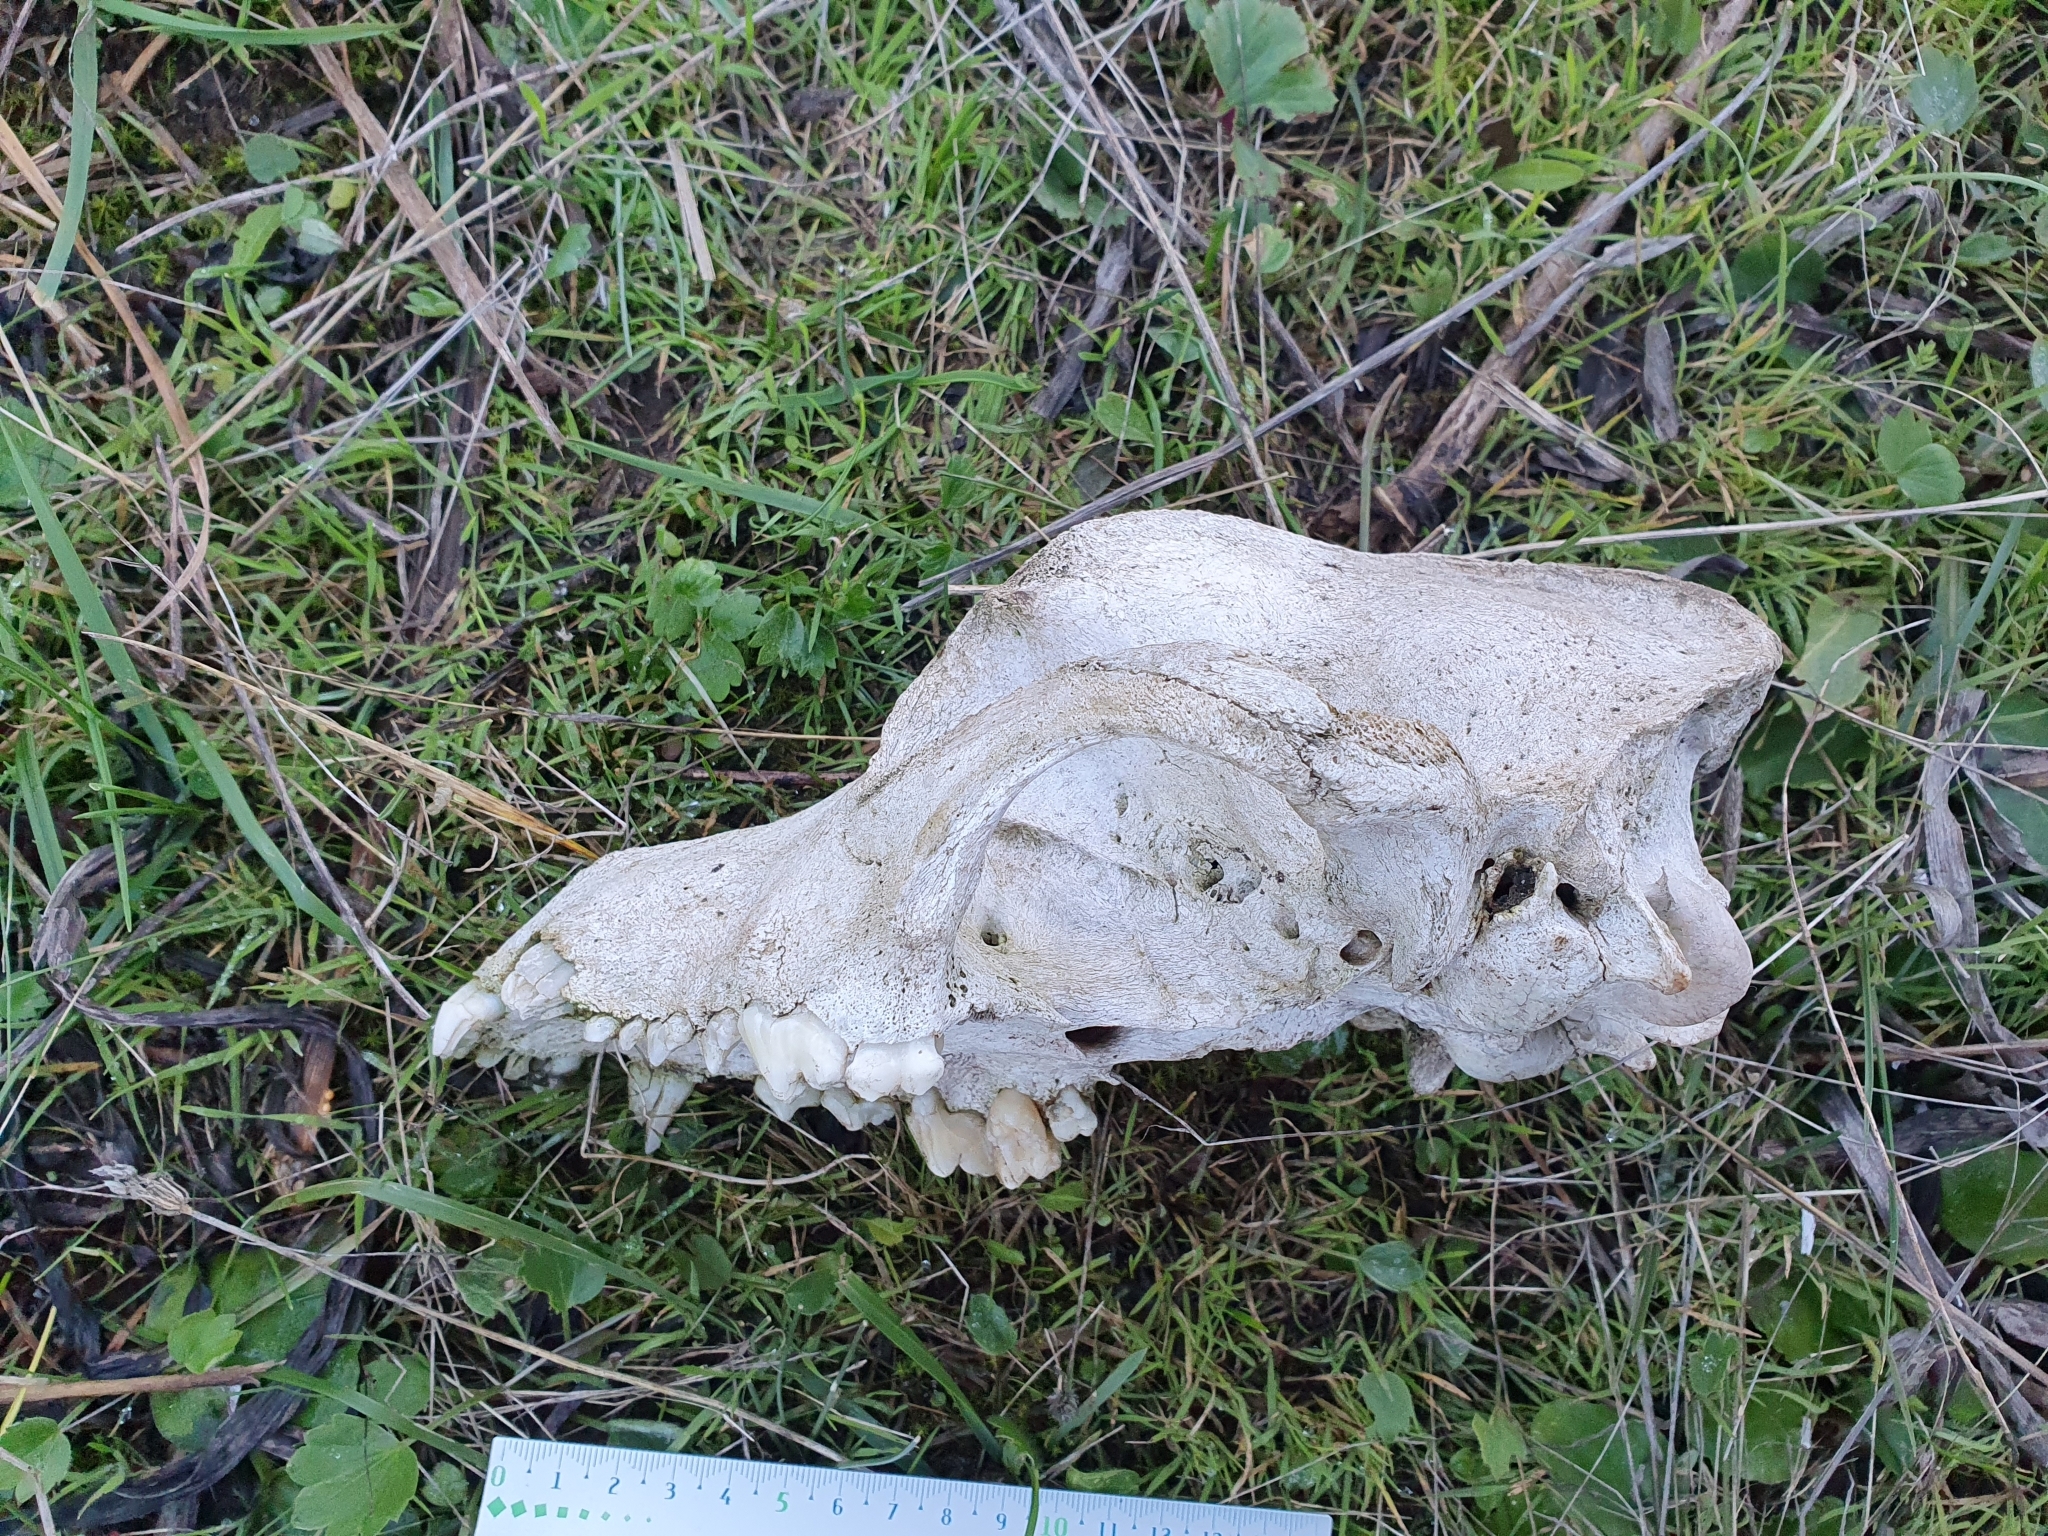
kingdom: Animalia
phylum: Chordata
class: Mammalia
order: Carnivora
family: Canidae
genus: Canis
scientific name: Canis lupus
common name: Gray wolf
